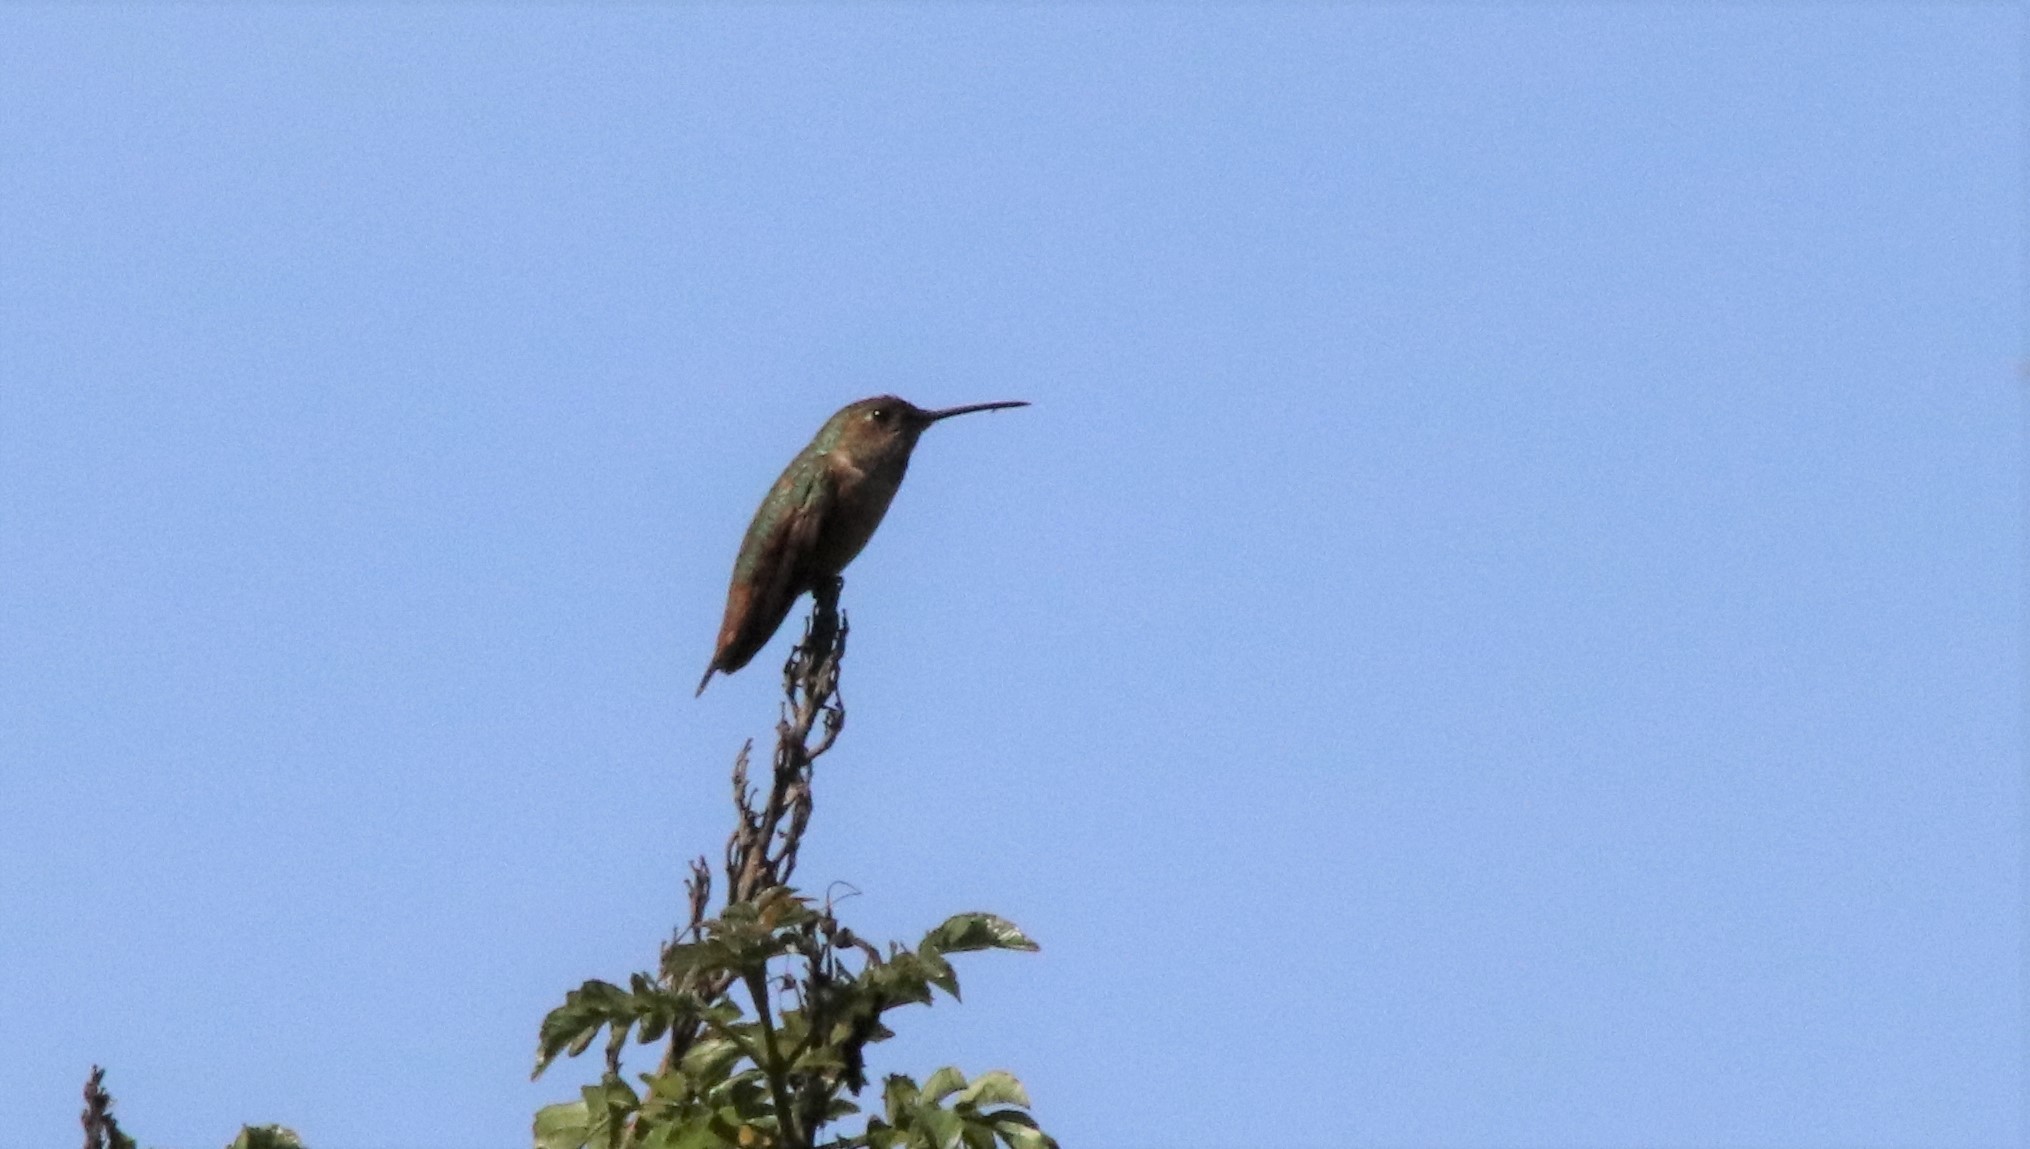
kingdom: Animalia
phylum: Chordata
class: Aves
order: Apodiformes
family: Trochilidae
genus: Selasphorus
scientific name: Selasphorus
